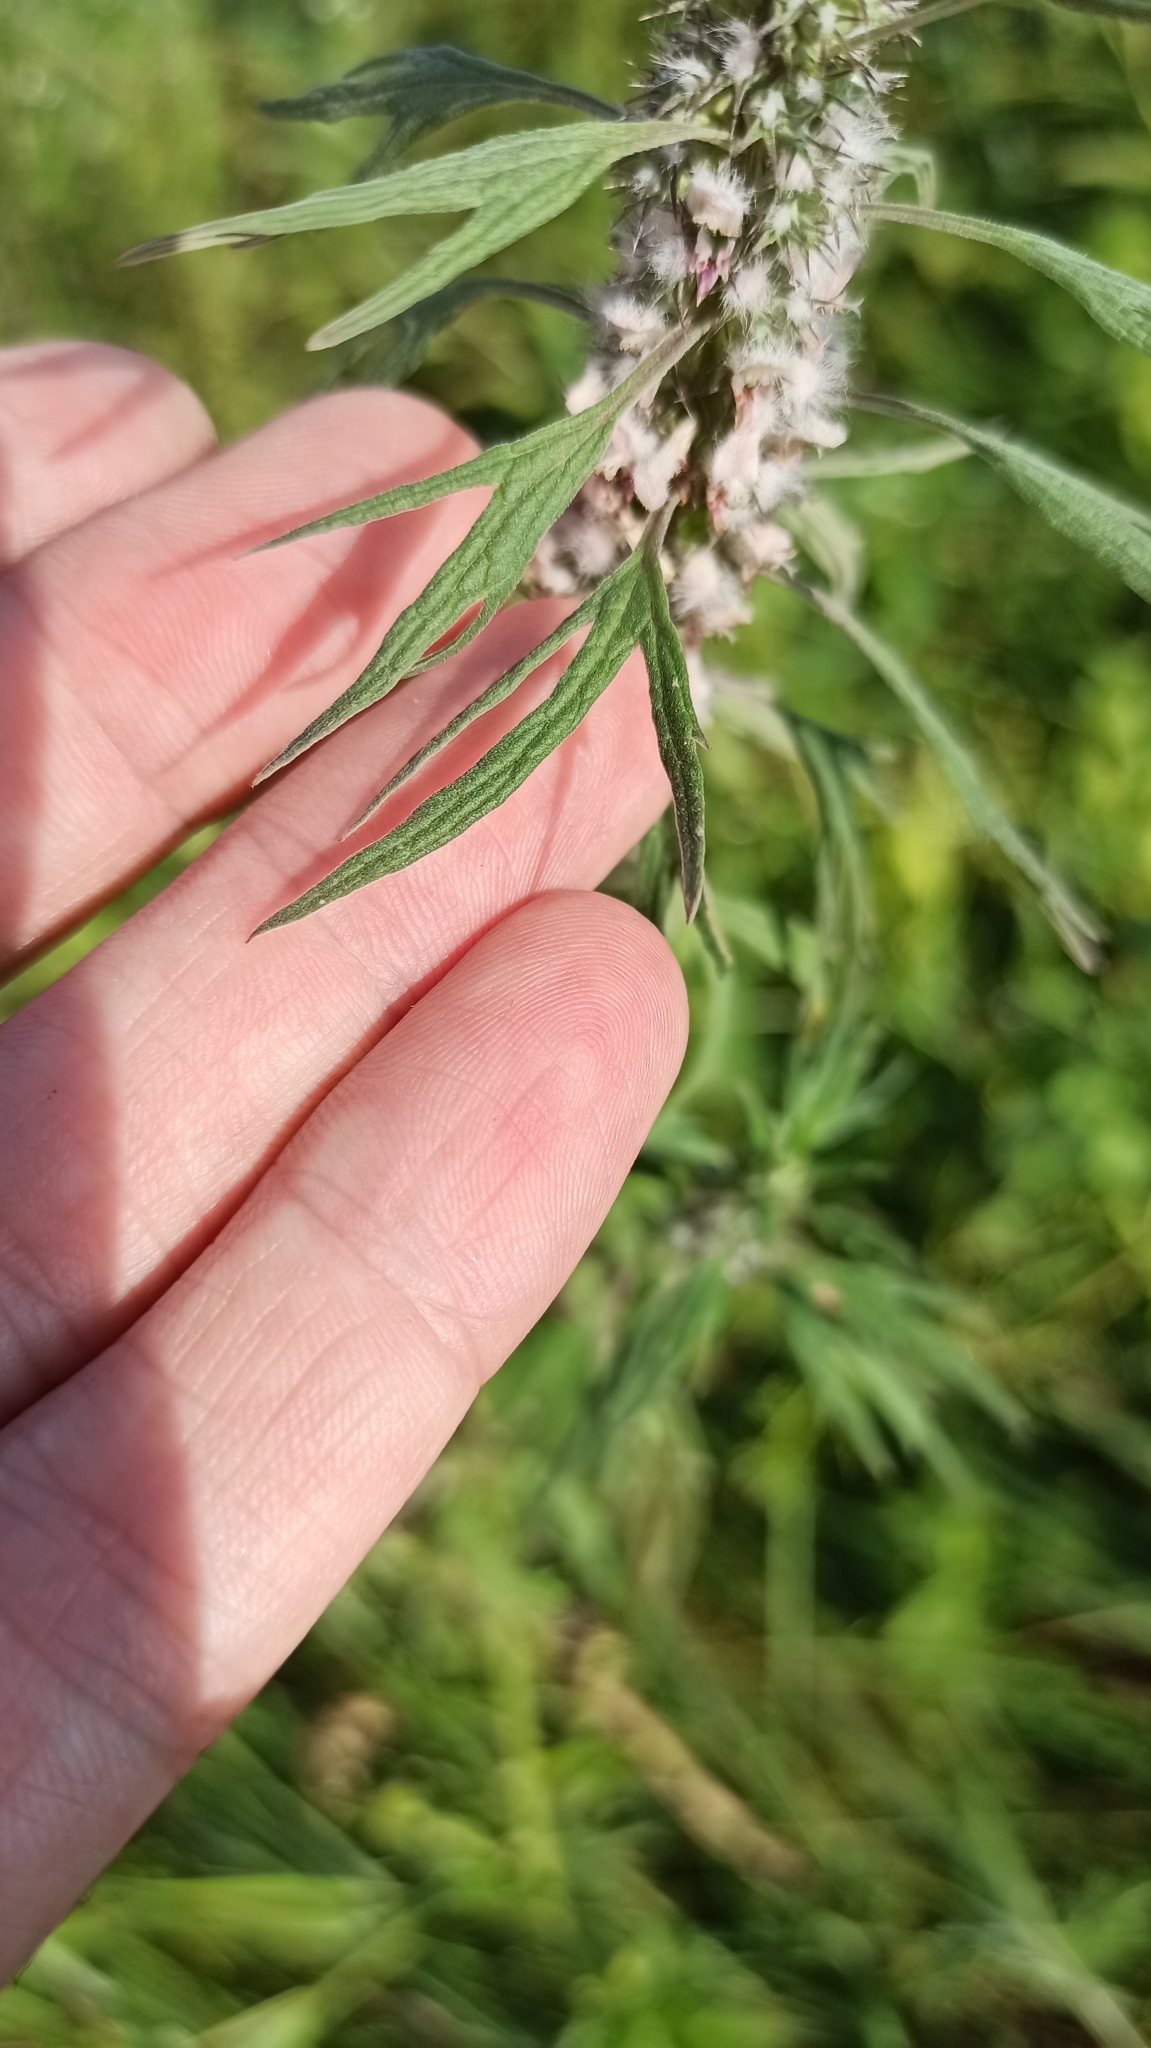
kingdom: Plantae
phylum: Tracheophyta
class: Magnoliopsida
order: Lamiales
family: Lamiaceae
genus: Leonurus
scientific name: Leonurus quinquelobatus
